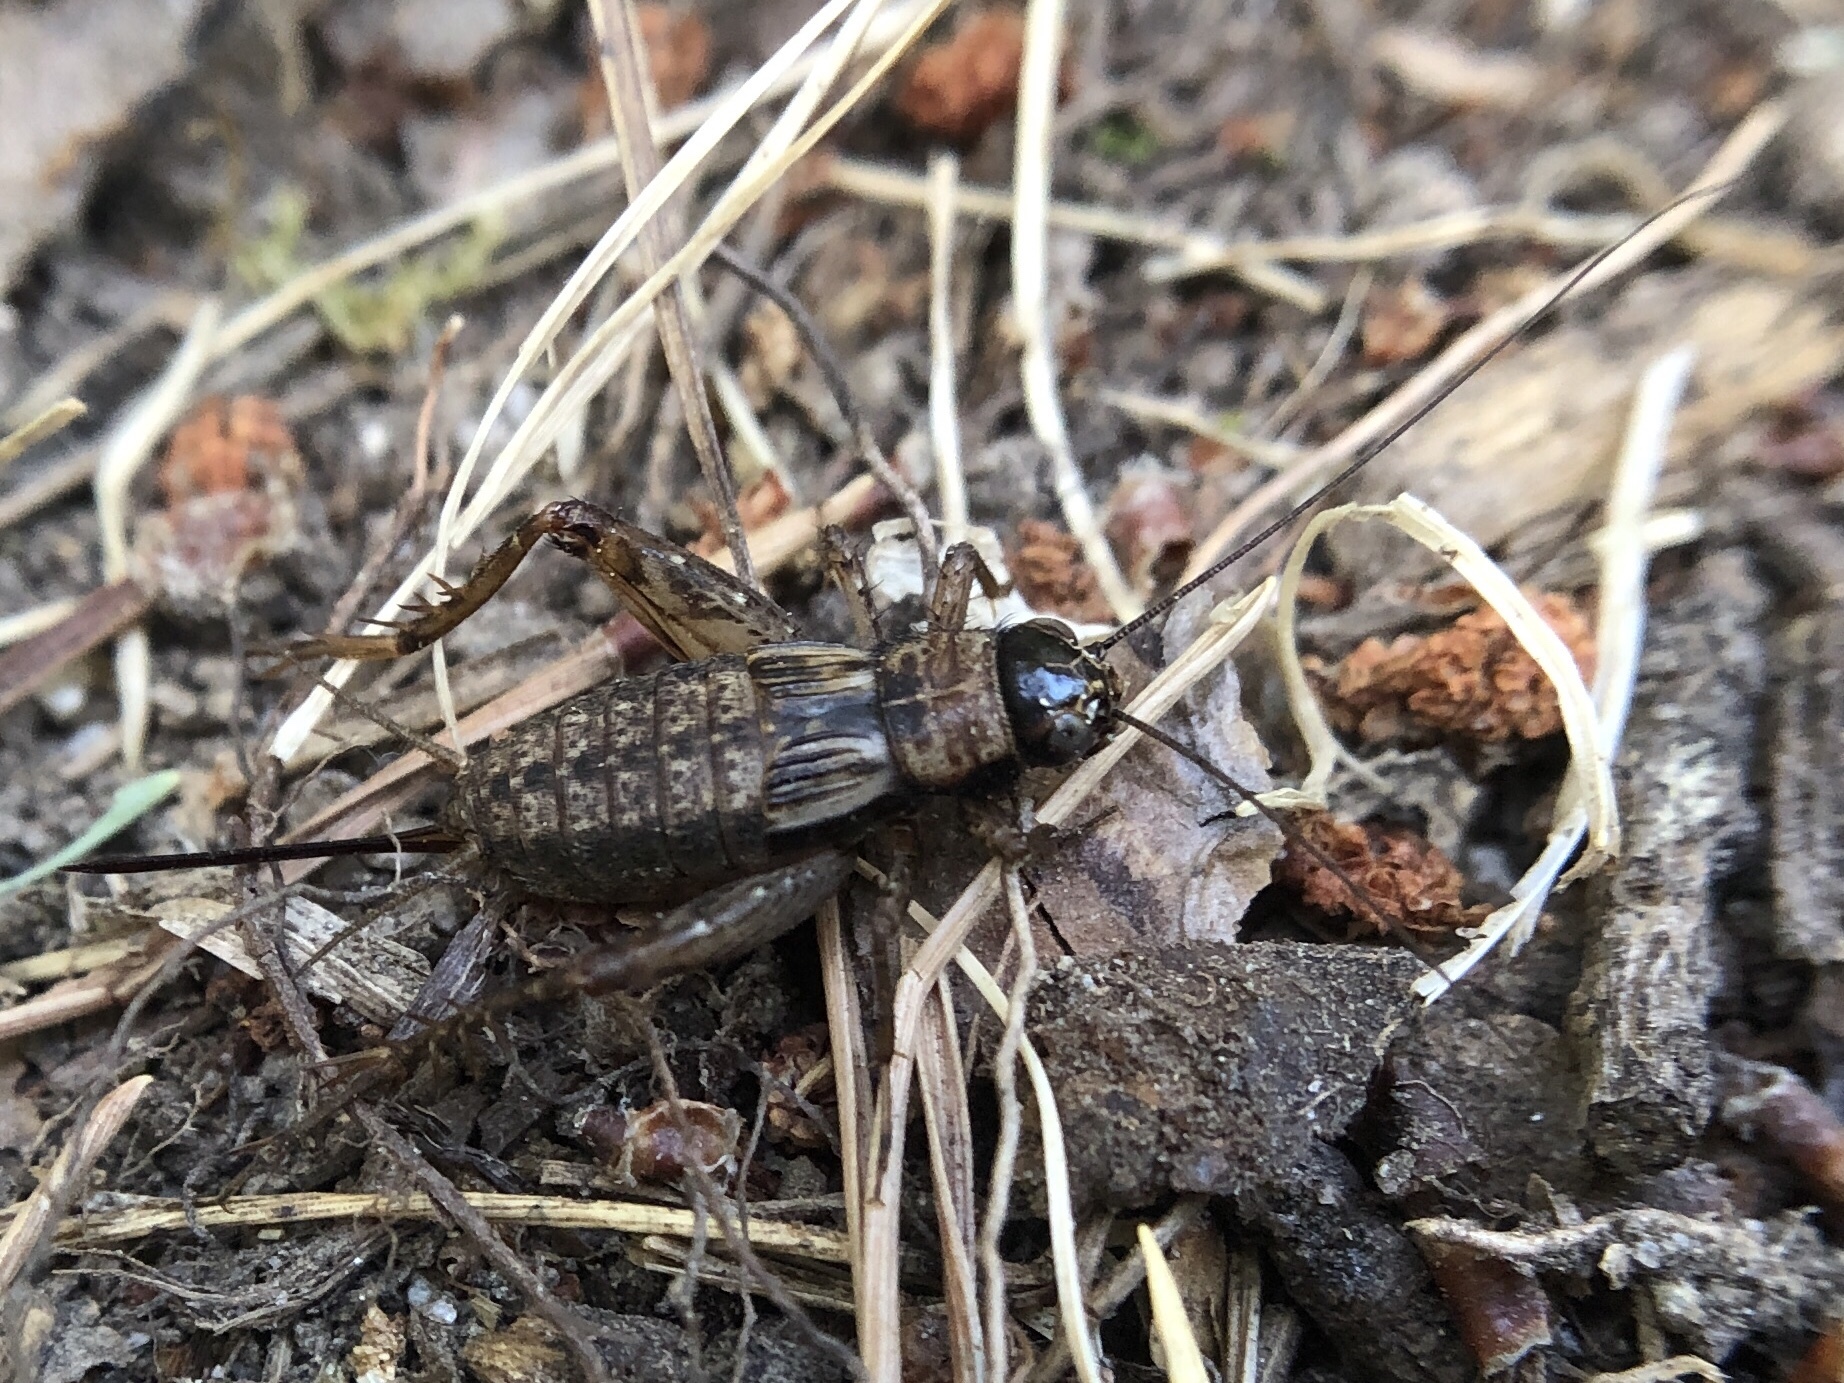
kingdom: Animalia
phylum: Arthropoda
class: Insecta
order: Orthoptera
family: Trigonidiidae
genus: Nemobius
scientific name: Nemobius sylvestris
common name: Wood-cricket
